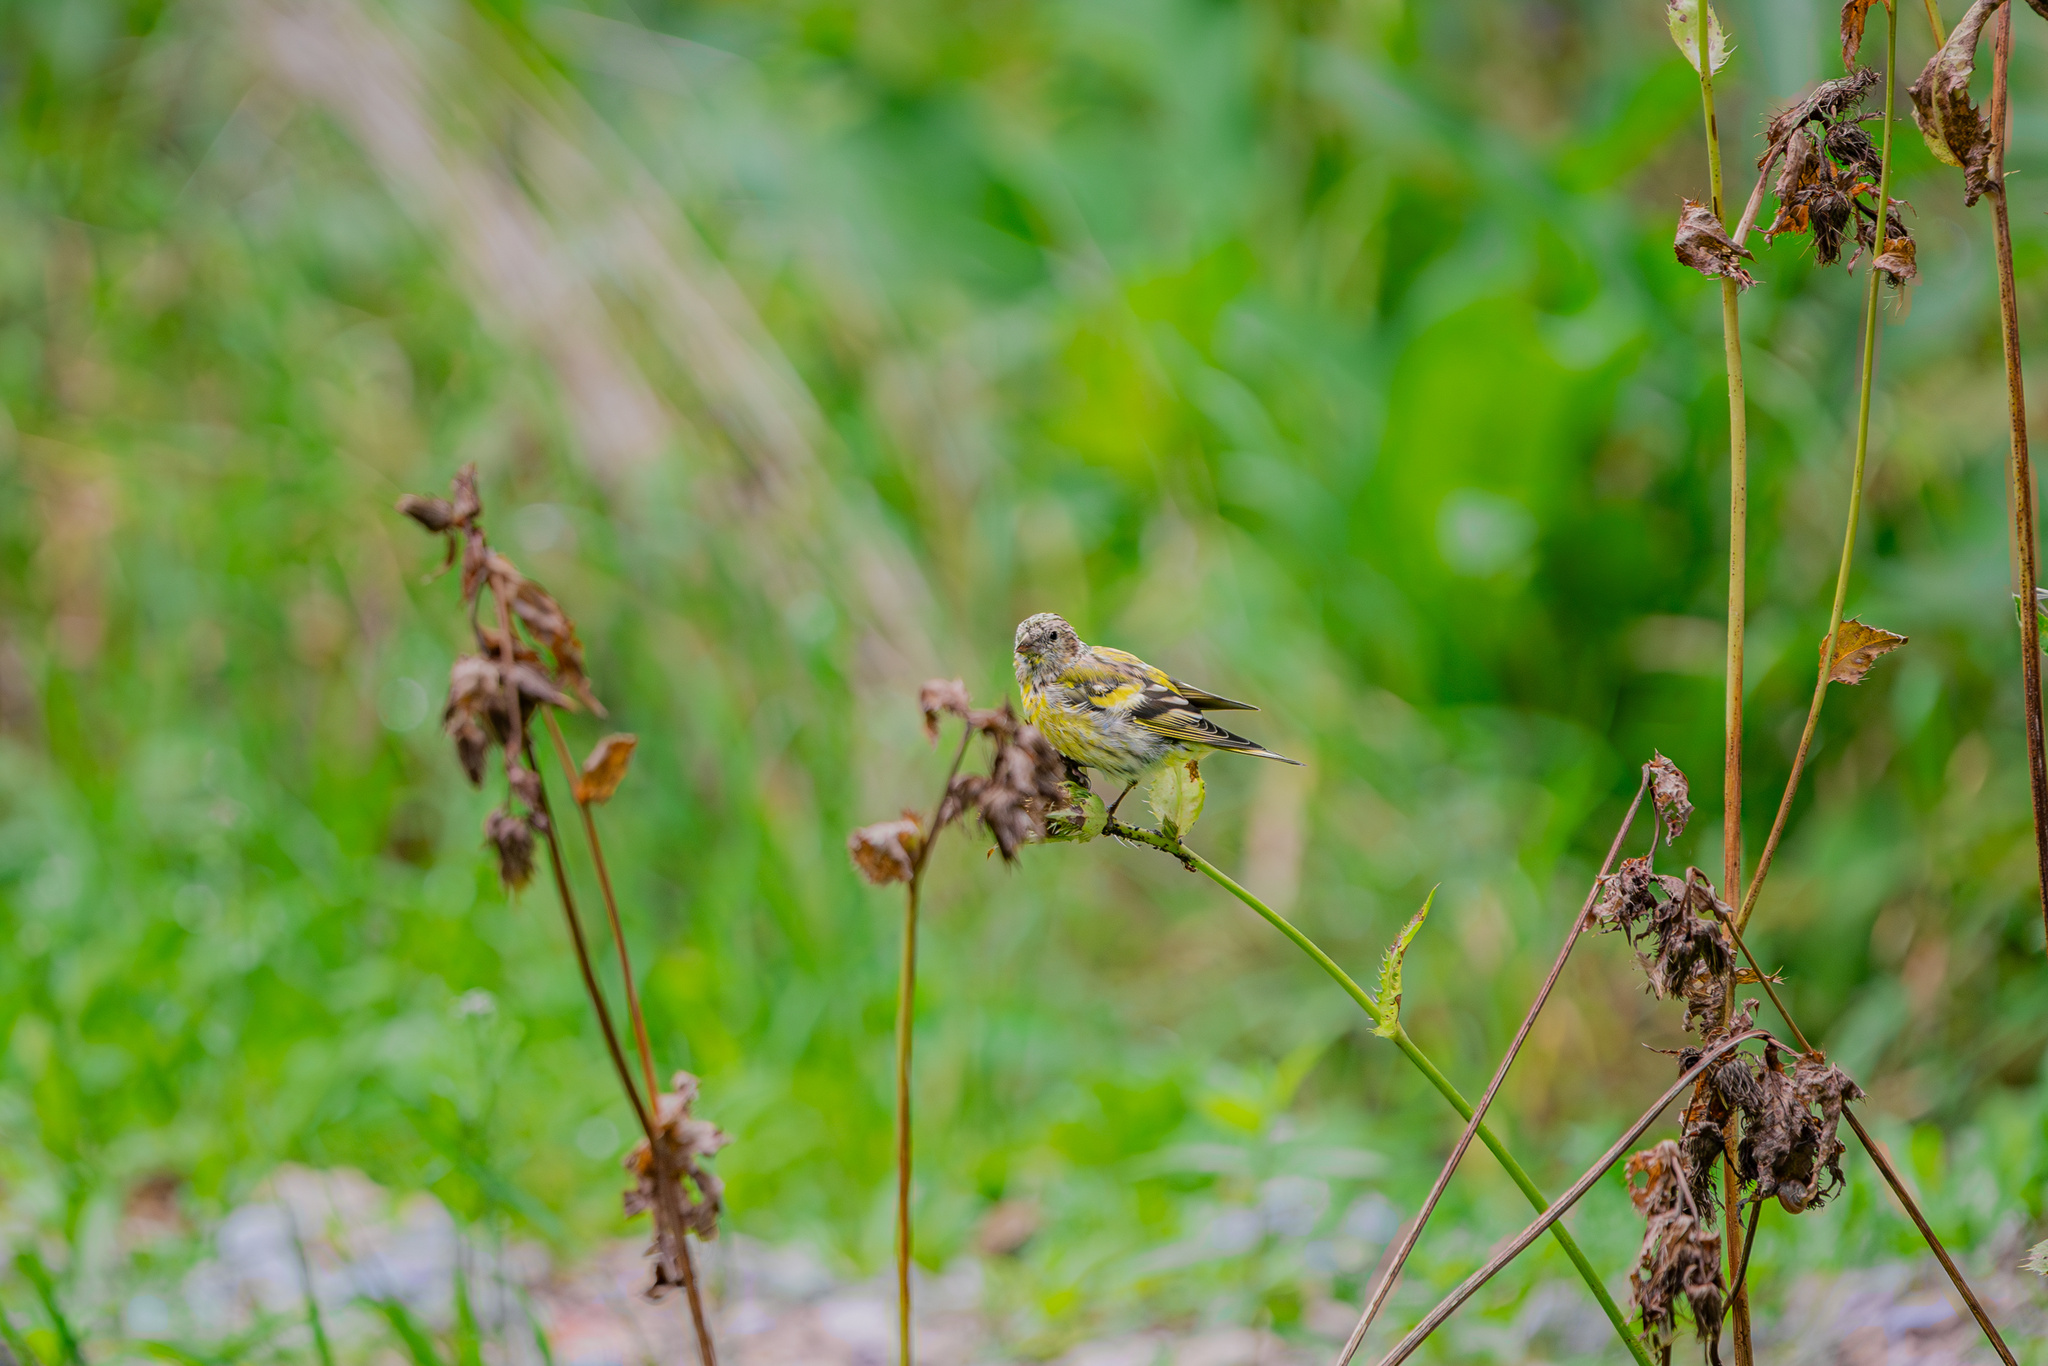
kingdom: Animalia
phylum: Chordata
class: Aves
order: Passeriformes
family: Fringillidae
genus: Spinus
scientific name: Spinus spinus
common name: Eurasian siskin
